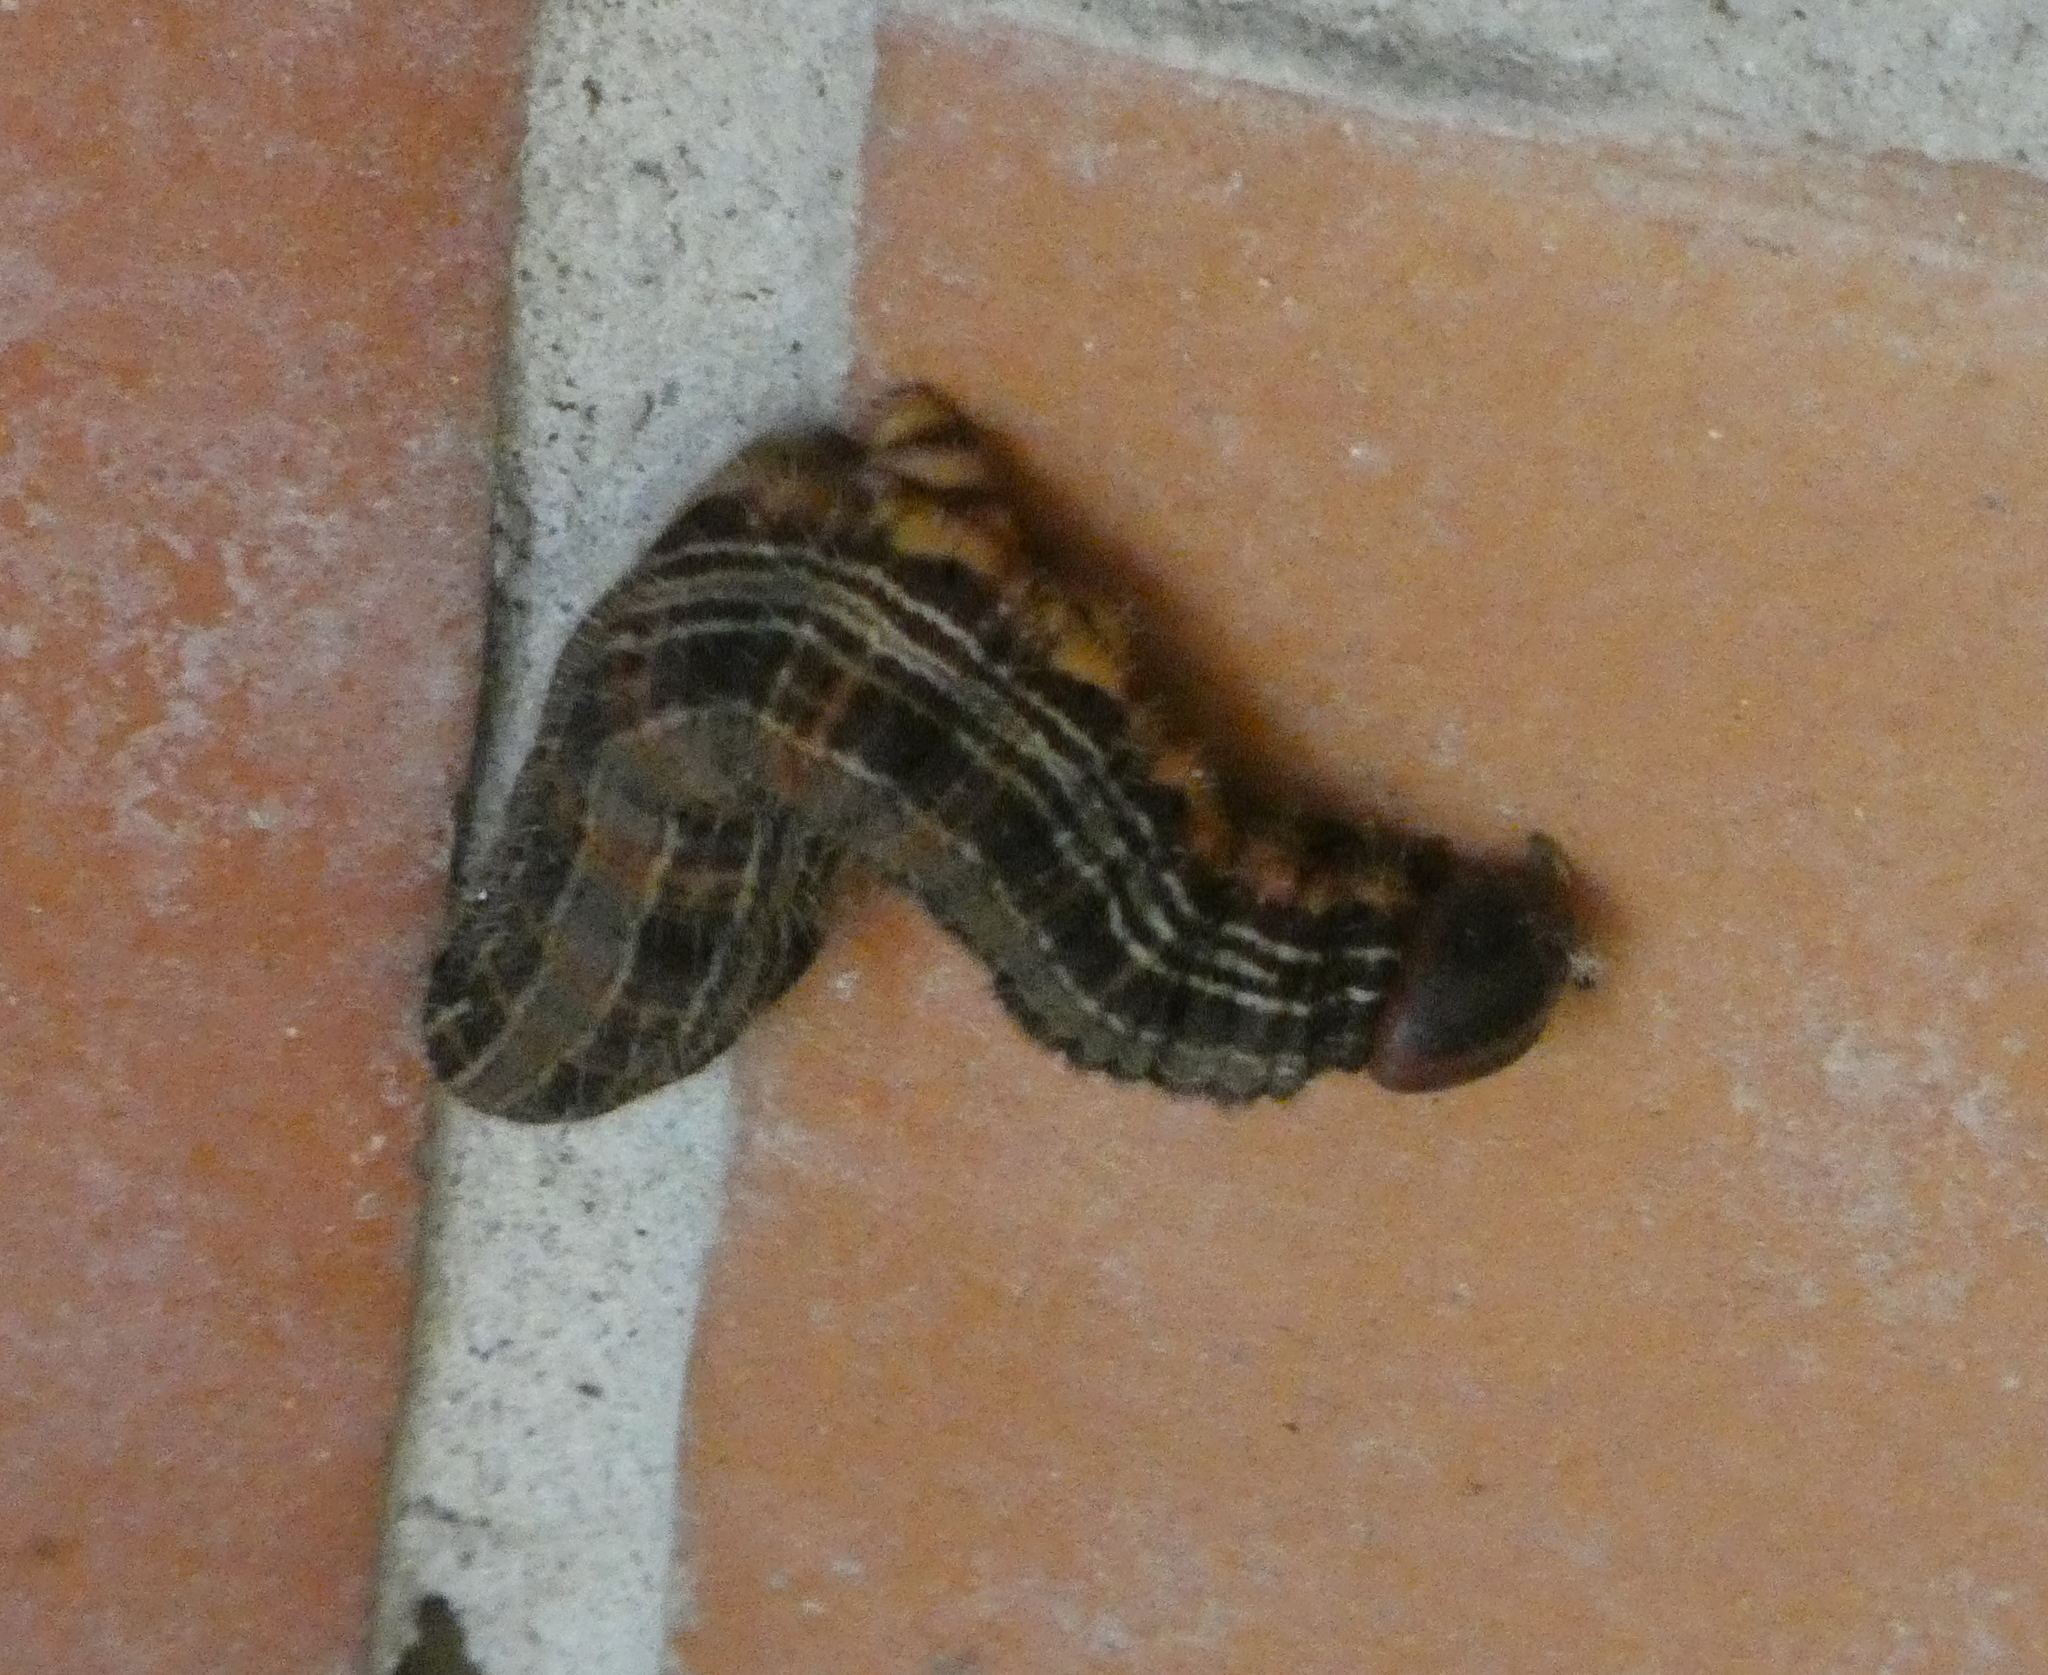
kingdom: Animalia
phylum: Arthropoda
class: Insecta
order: Lepidoptera
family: Nymphalidae
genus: Brassolis
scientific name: Brassolis sophorae
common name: Coconut caterpillar
